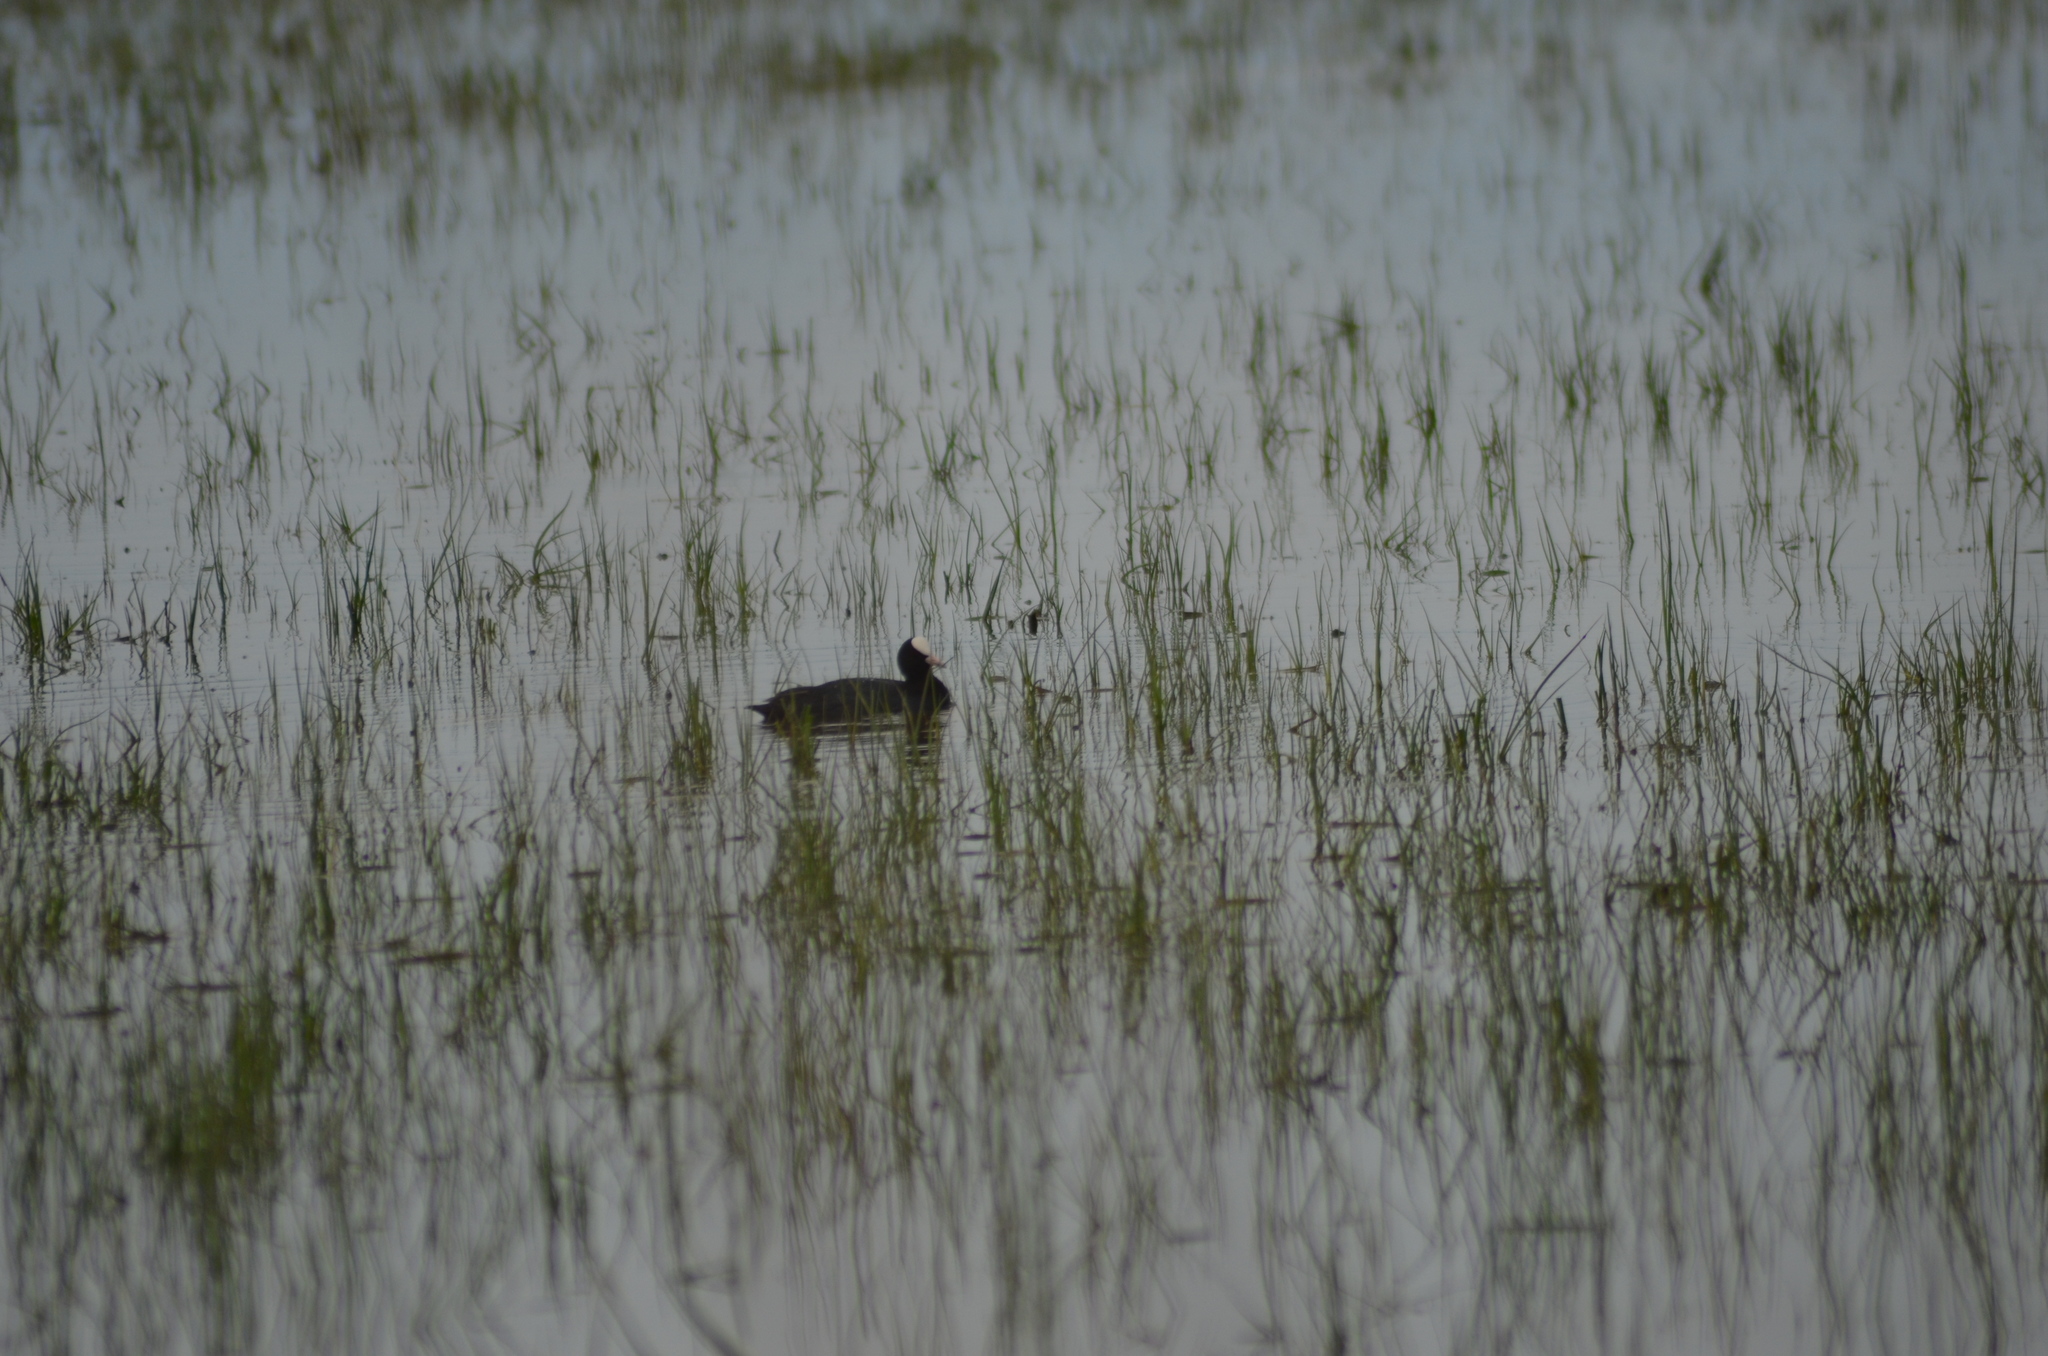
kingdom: Animalia
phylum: Chordata
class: Aves
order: Gruiformes
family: Rallidae
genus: Fulica
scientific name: Fulica atra
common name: Eurasian coot
